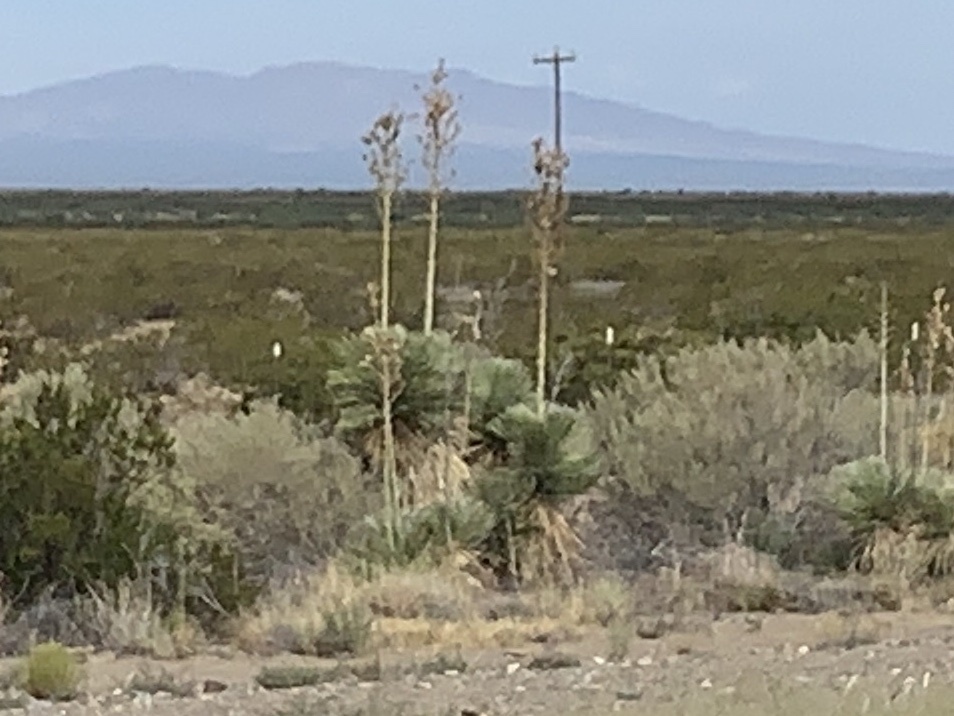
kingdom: Plantae
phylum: Tracheophyta
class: Liliopsida
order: Asparagales
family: Asparagaceae
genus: Yucca
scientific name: Yucca elata
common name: Palmella
